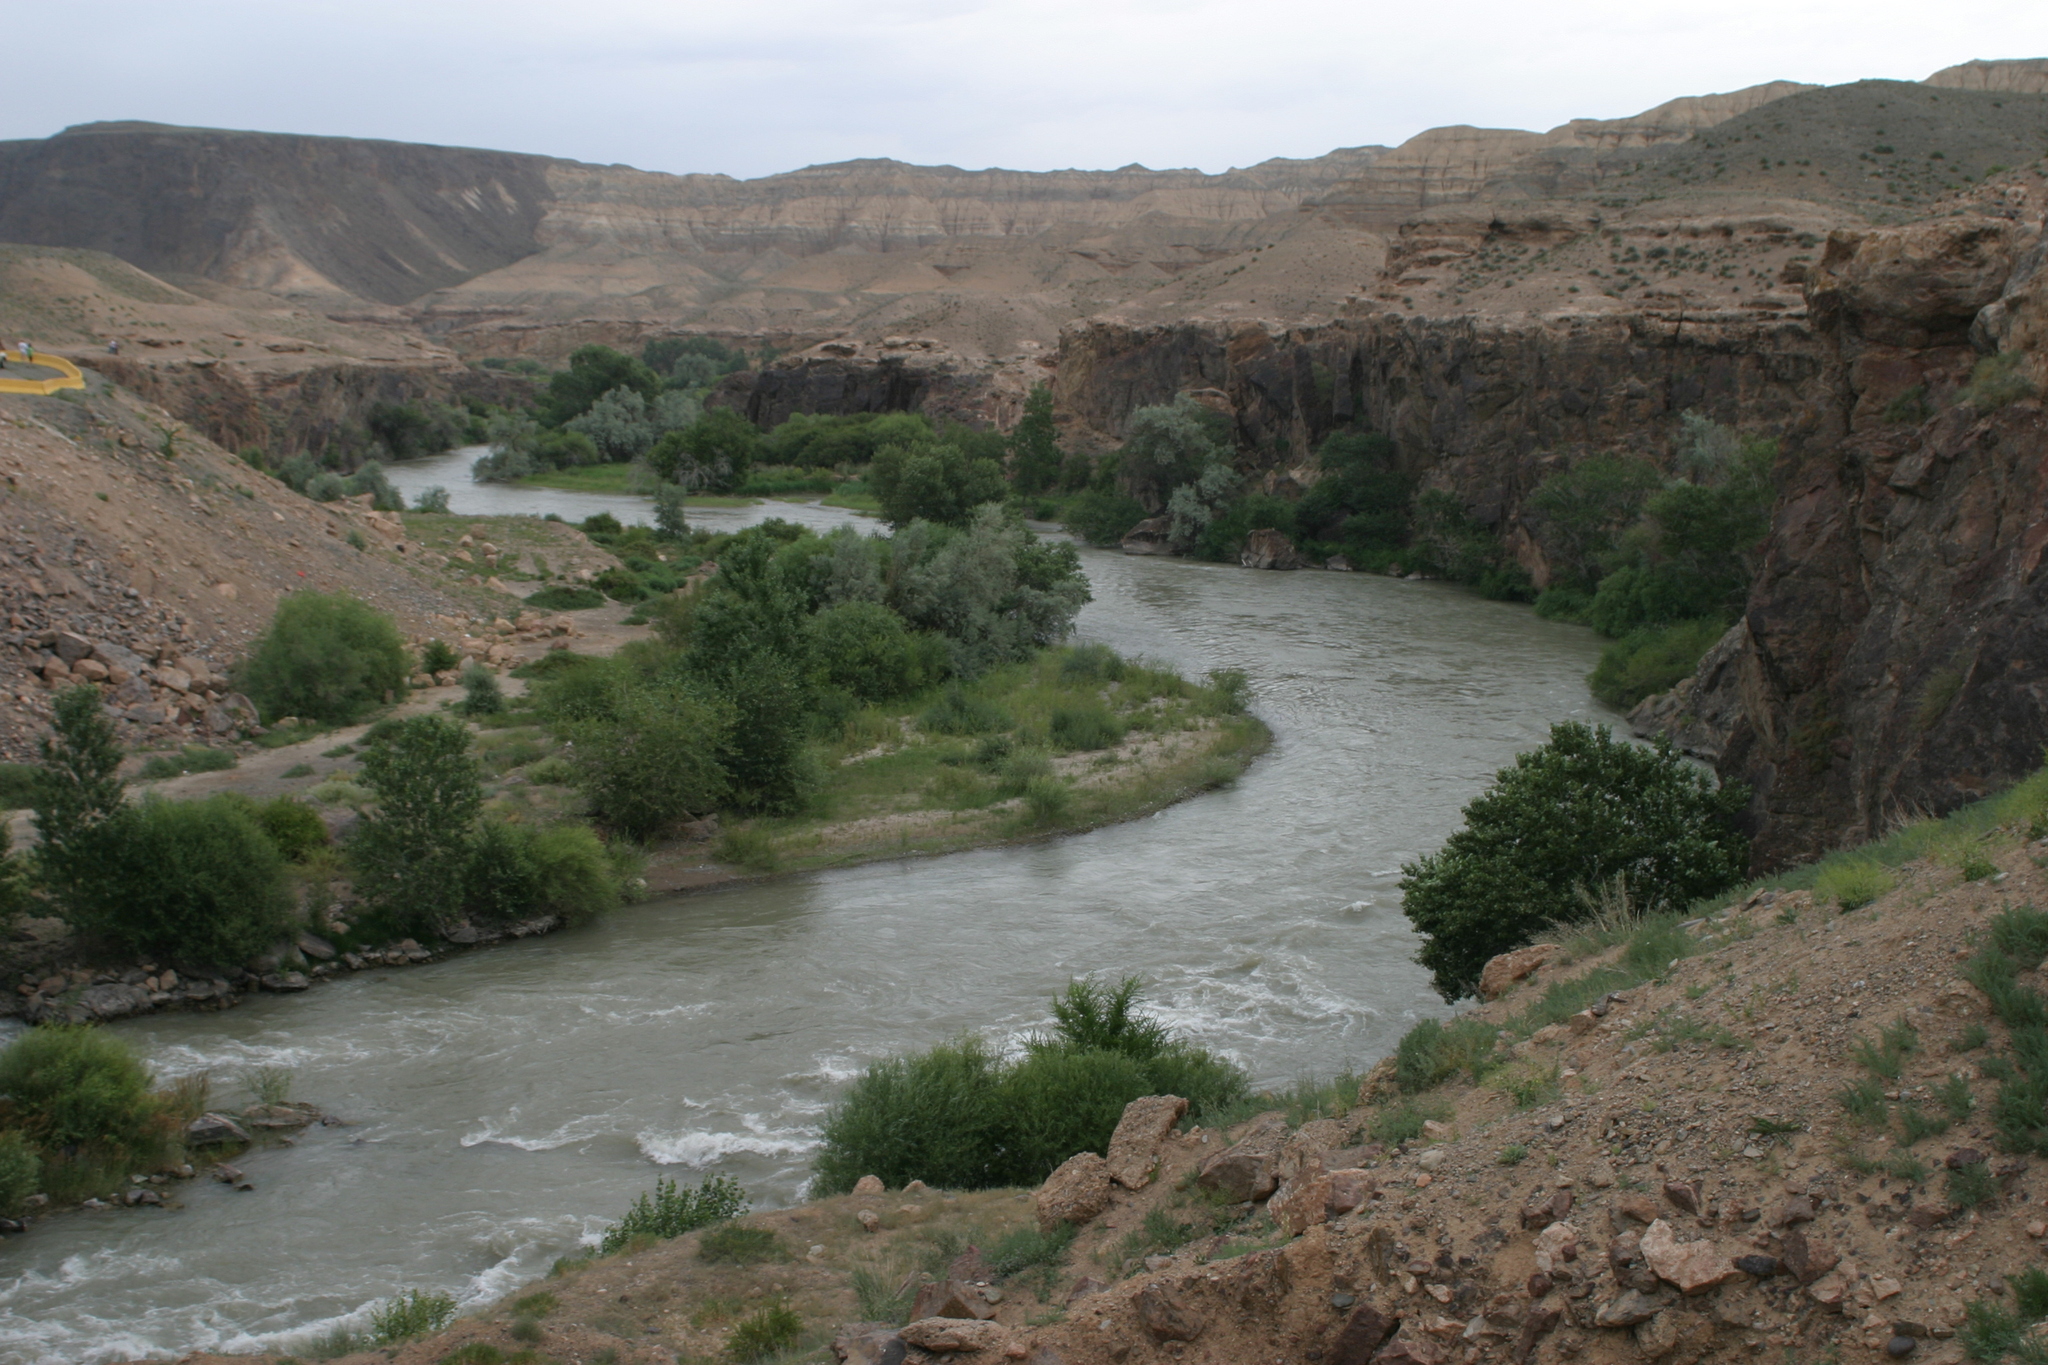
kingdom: Plantae
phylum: Tracheophyta
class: Magnoliopsida
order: Rosales
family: Elaeagnaceae
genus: Elaeagnus
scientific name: Elaeagnus angustifolia
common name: Russian olive
